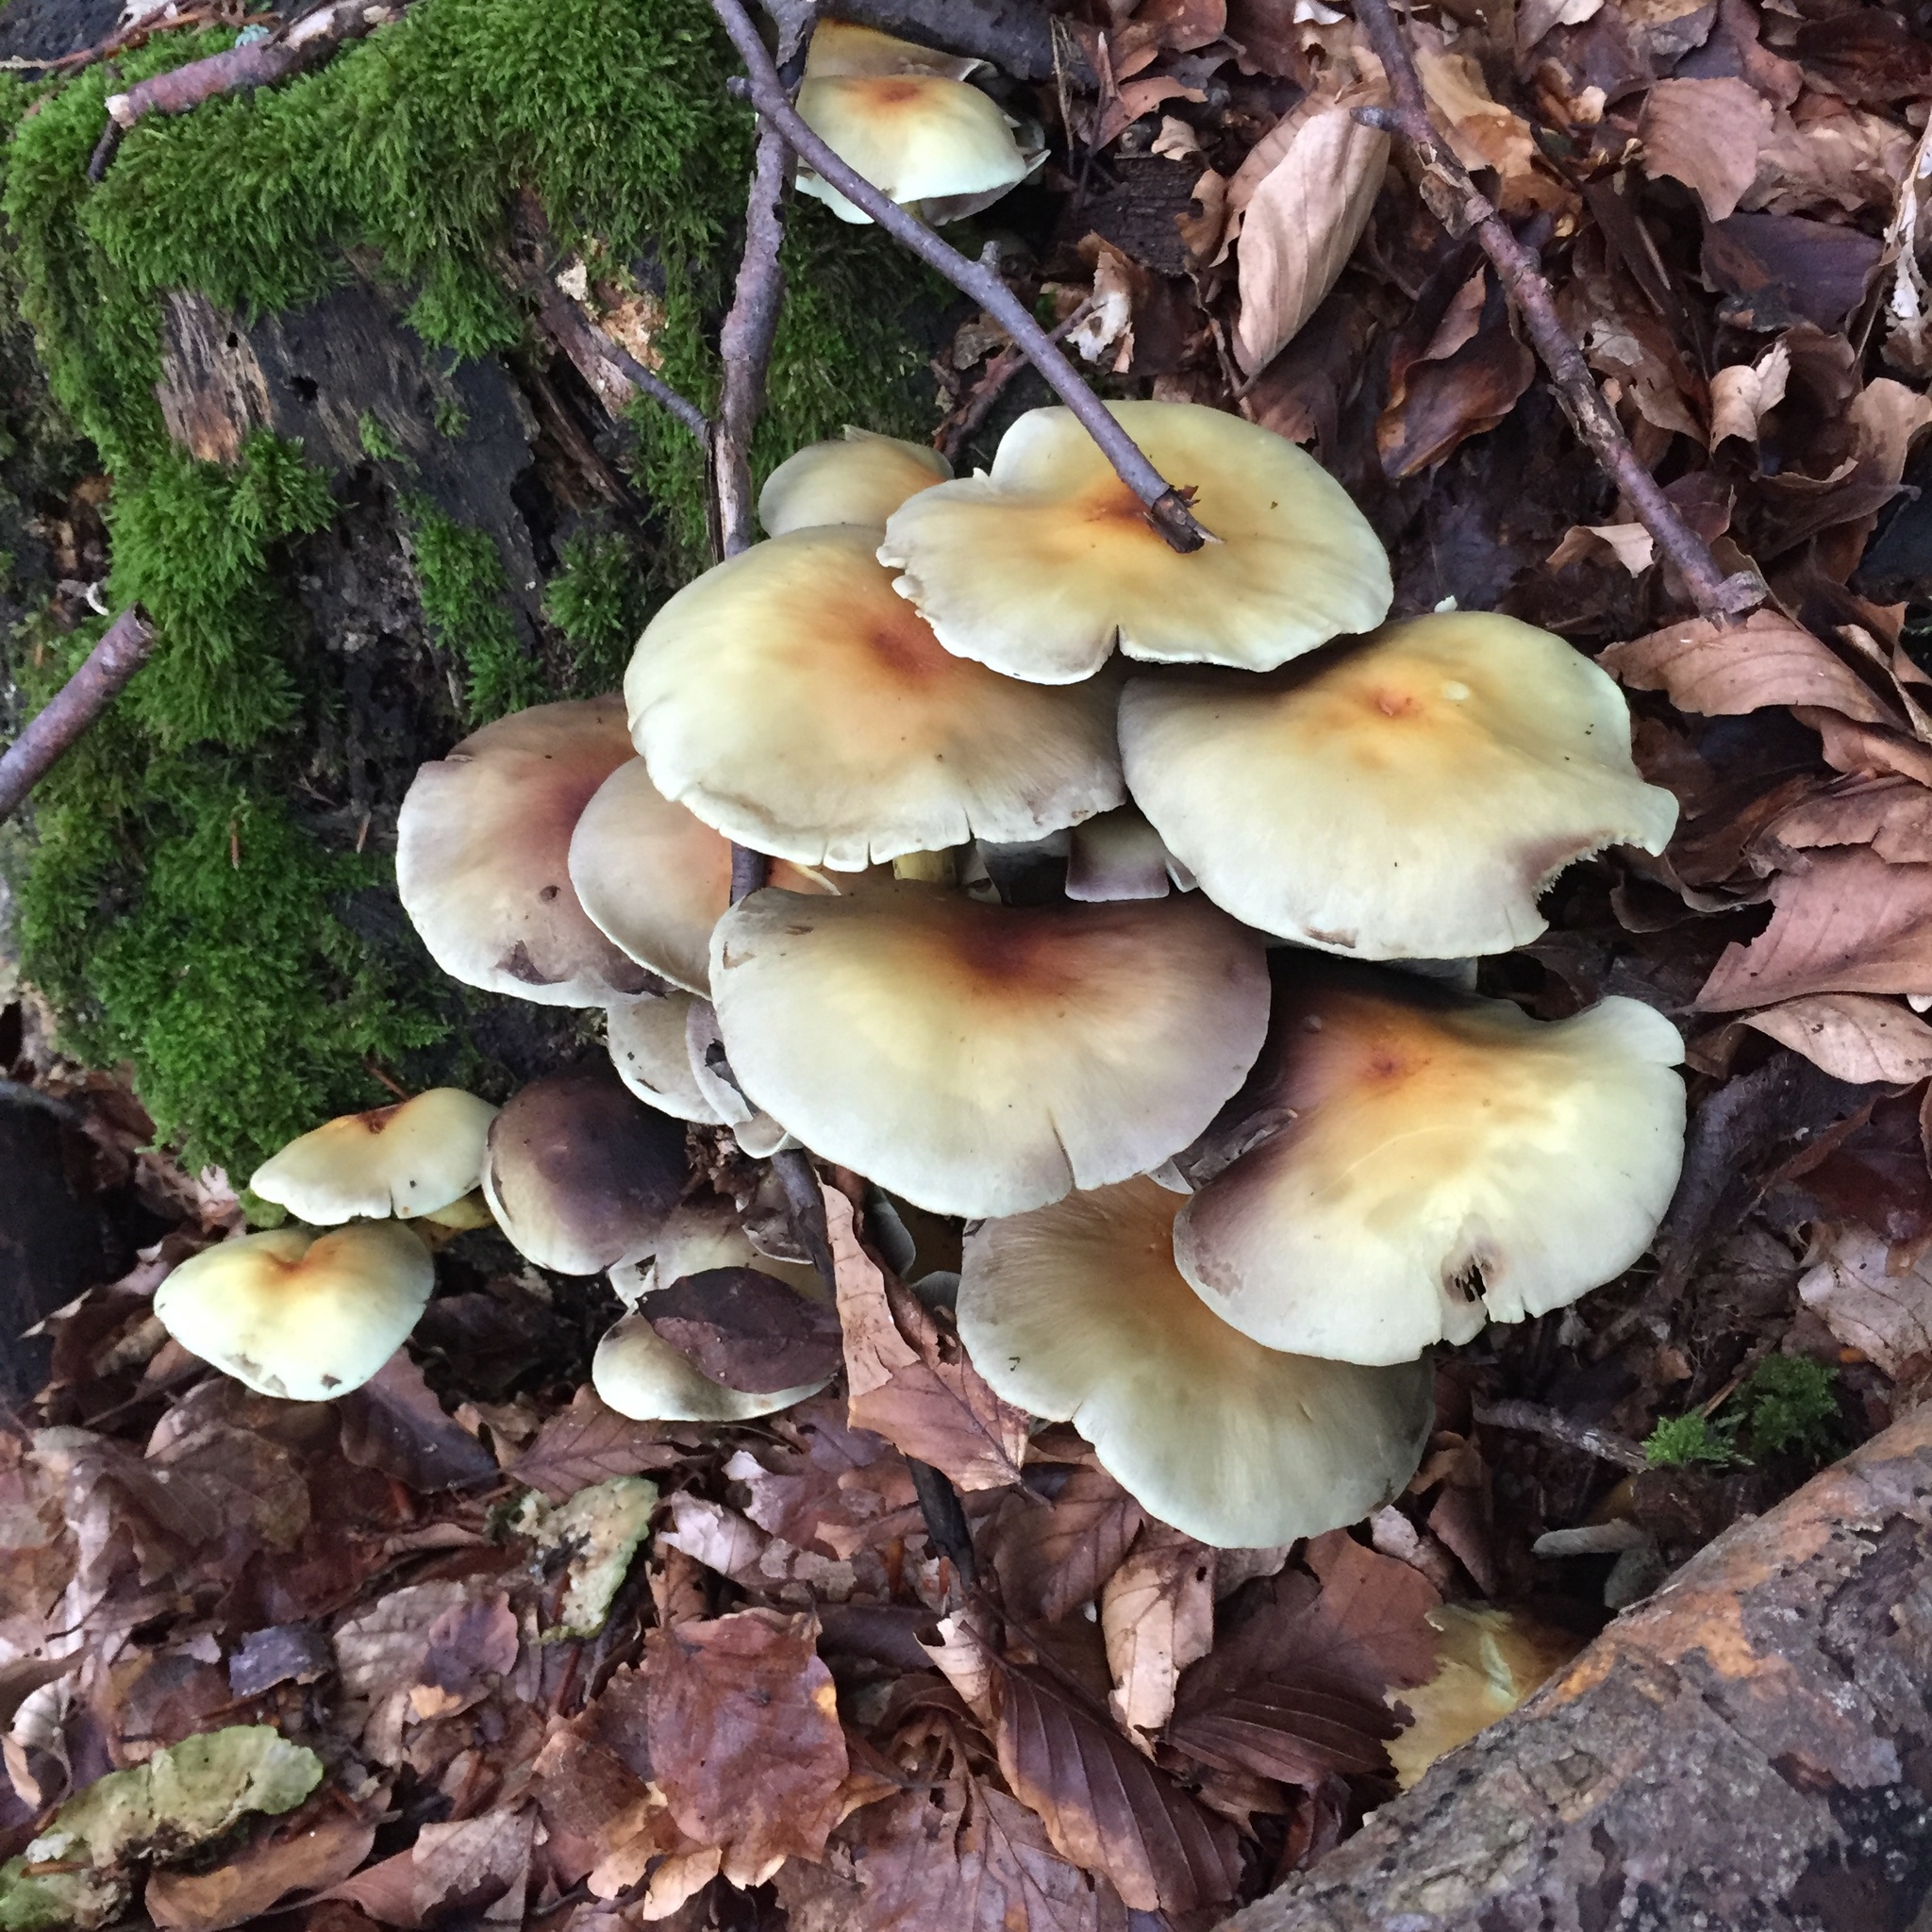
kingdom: Fungi
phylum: Basidiomycota
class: Agaricomycetes
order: Agaricales
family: Strophariaceae
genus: Hypholoma
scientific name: Hypholoma fasciculare
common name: Sulphur tuft
